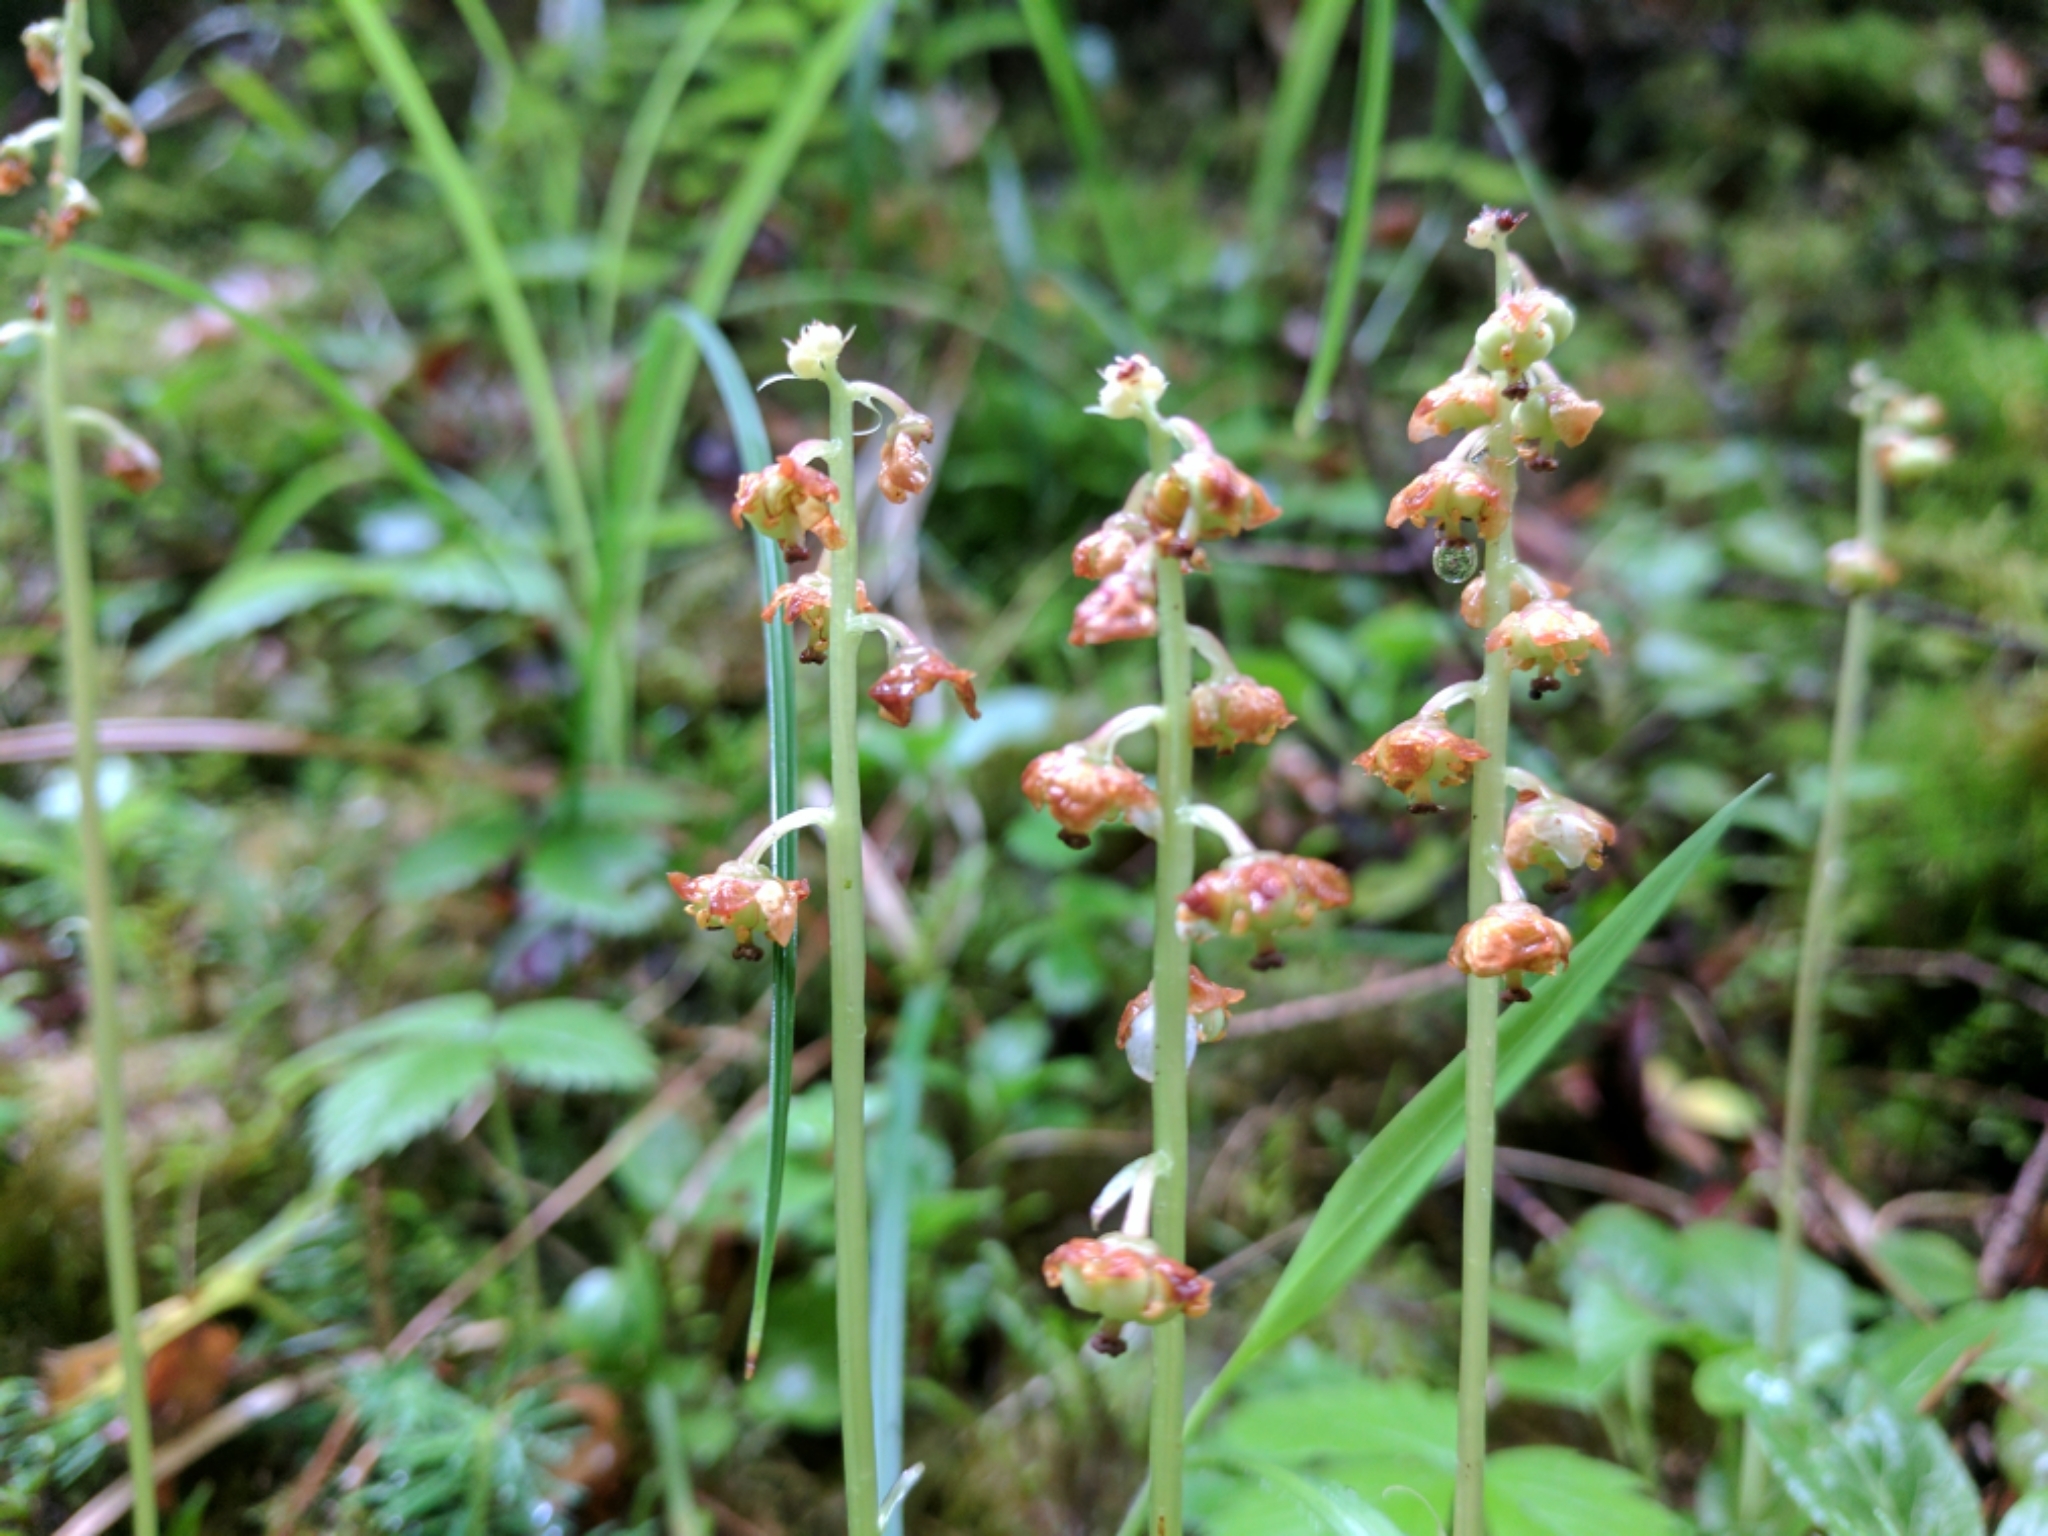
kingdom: Plantae
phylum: Tracheophyta
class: Magnoliopsida
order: Ericales
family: Ericaceae
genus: Pyrola
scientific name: Pyrola minor
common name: Common wintergreen
